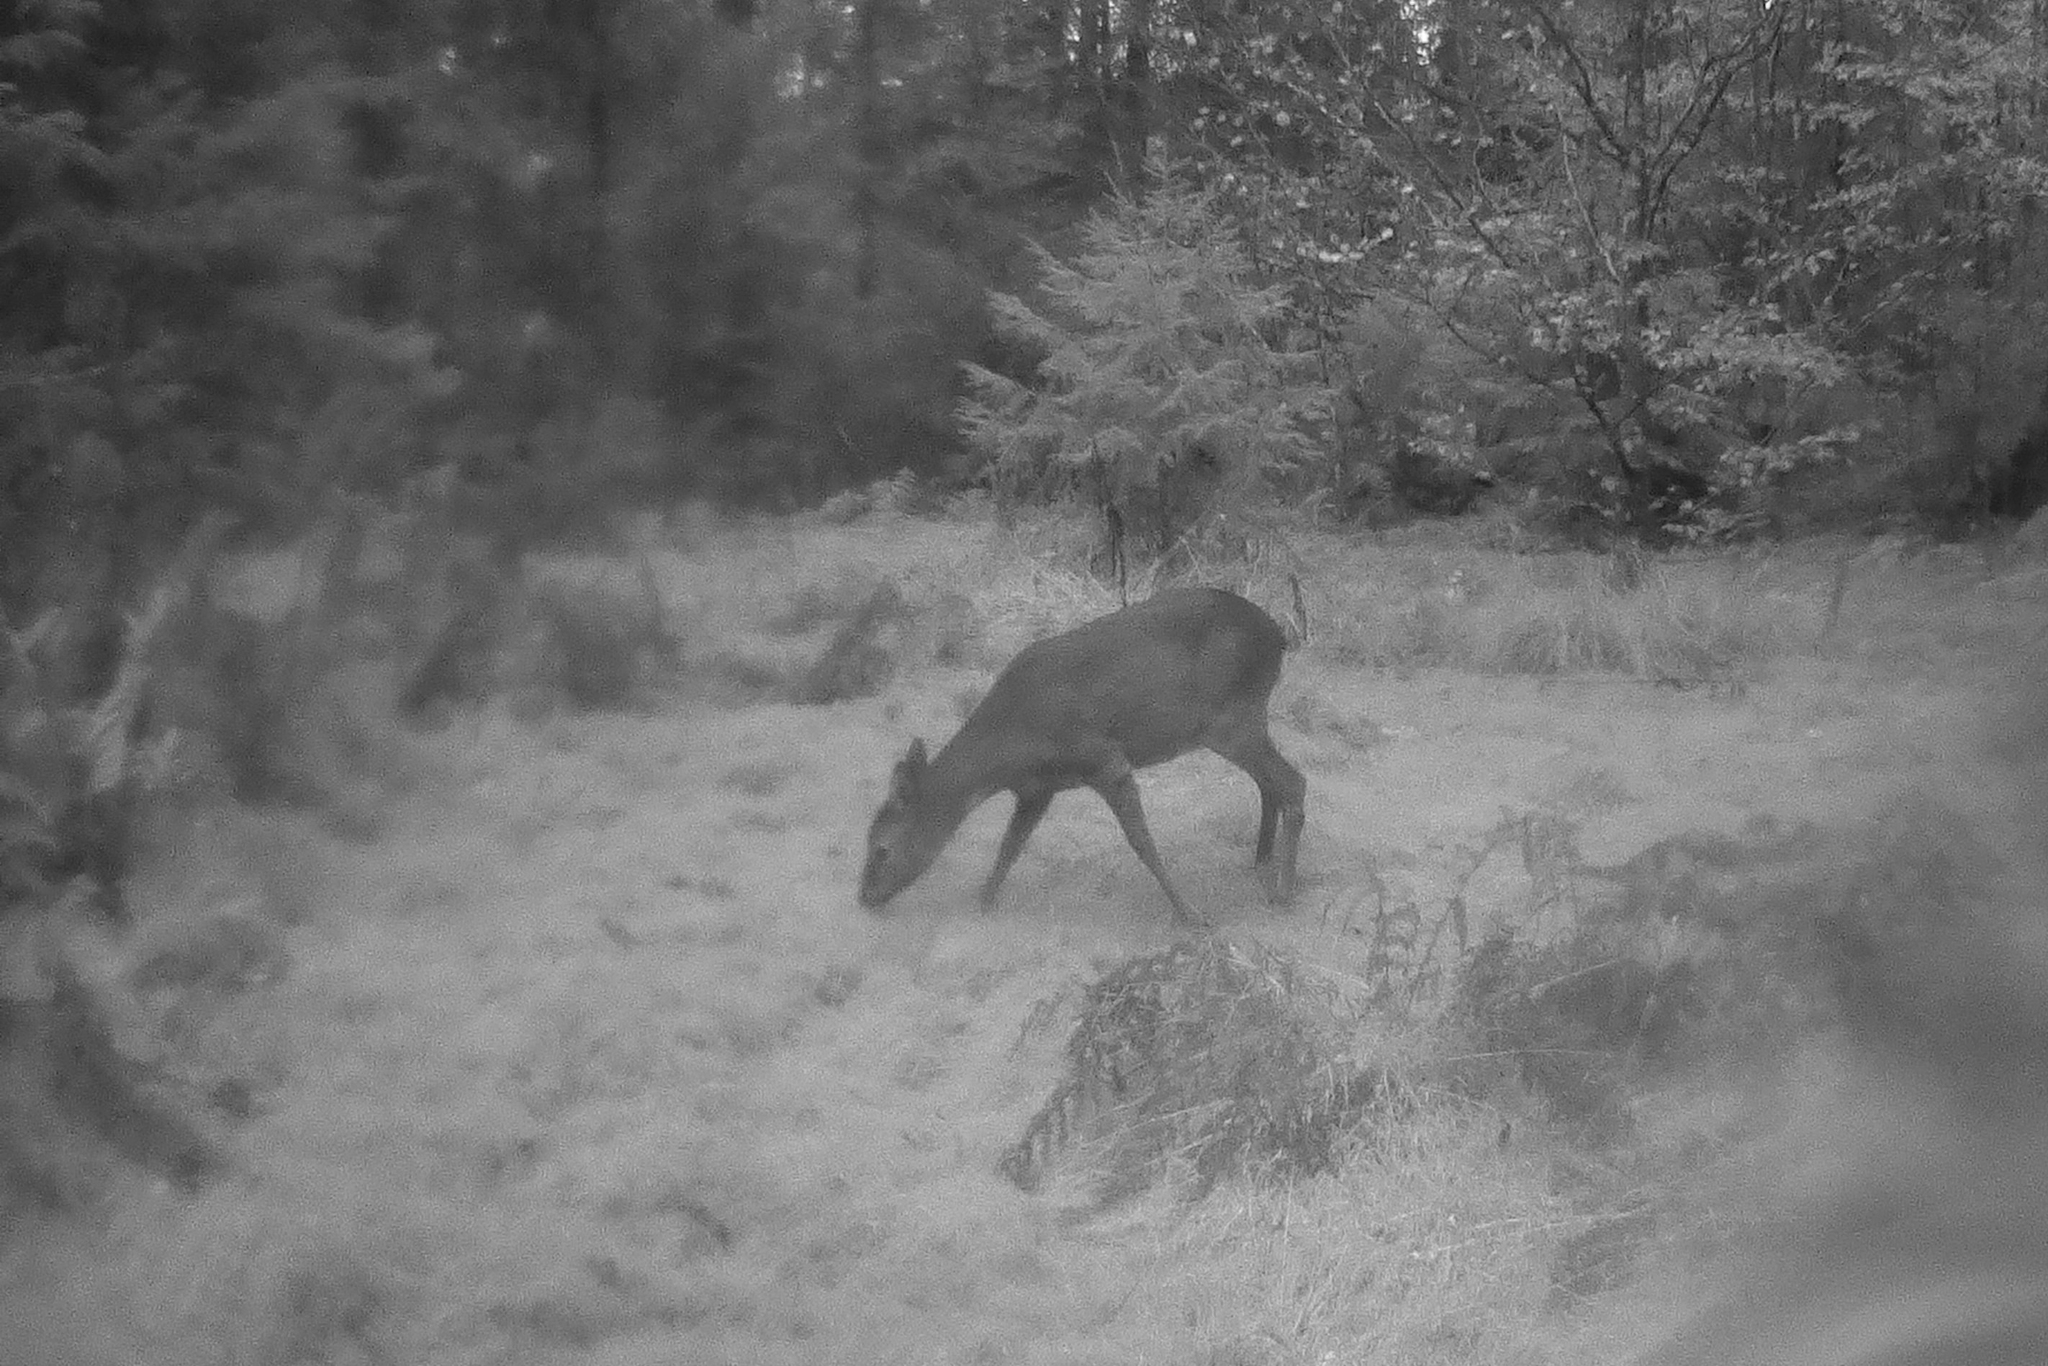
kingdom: Animalia
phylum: Chordata
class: Mammalia
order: Artiodactyla
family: Cervidae
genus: Capreolus
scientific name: Capreolus capreolus
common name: Western roe deer
